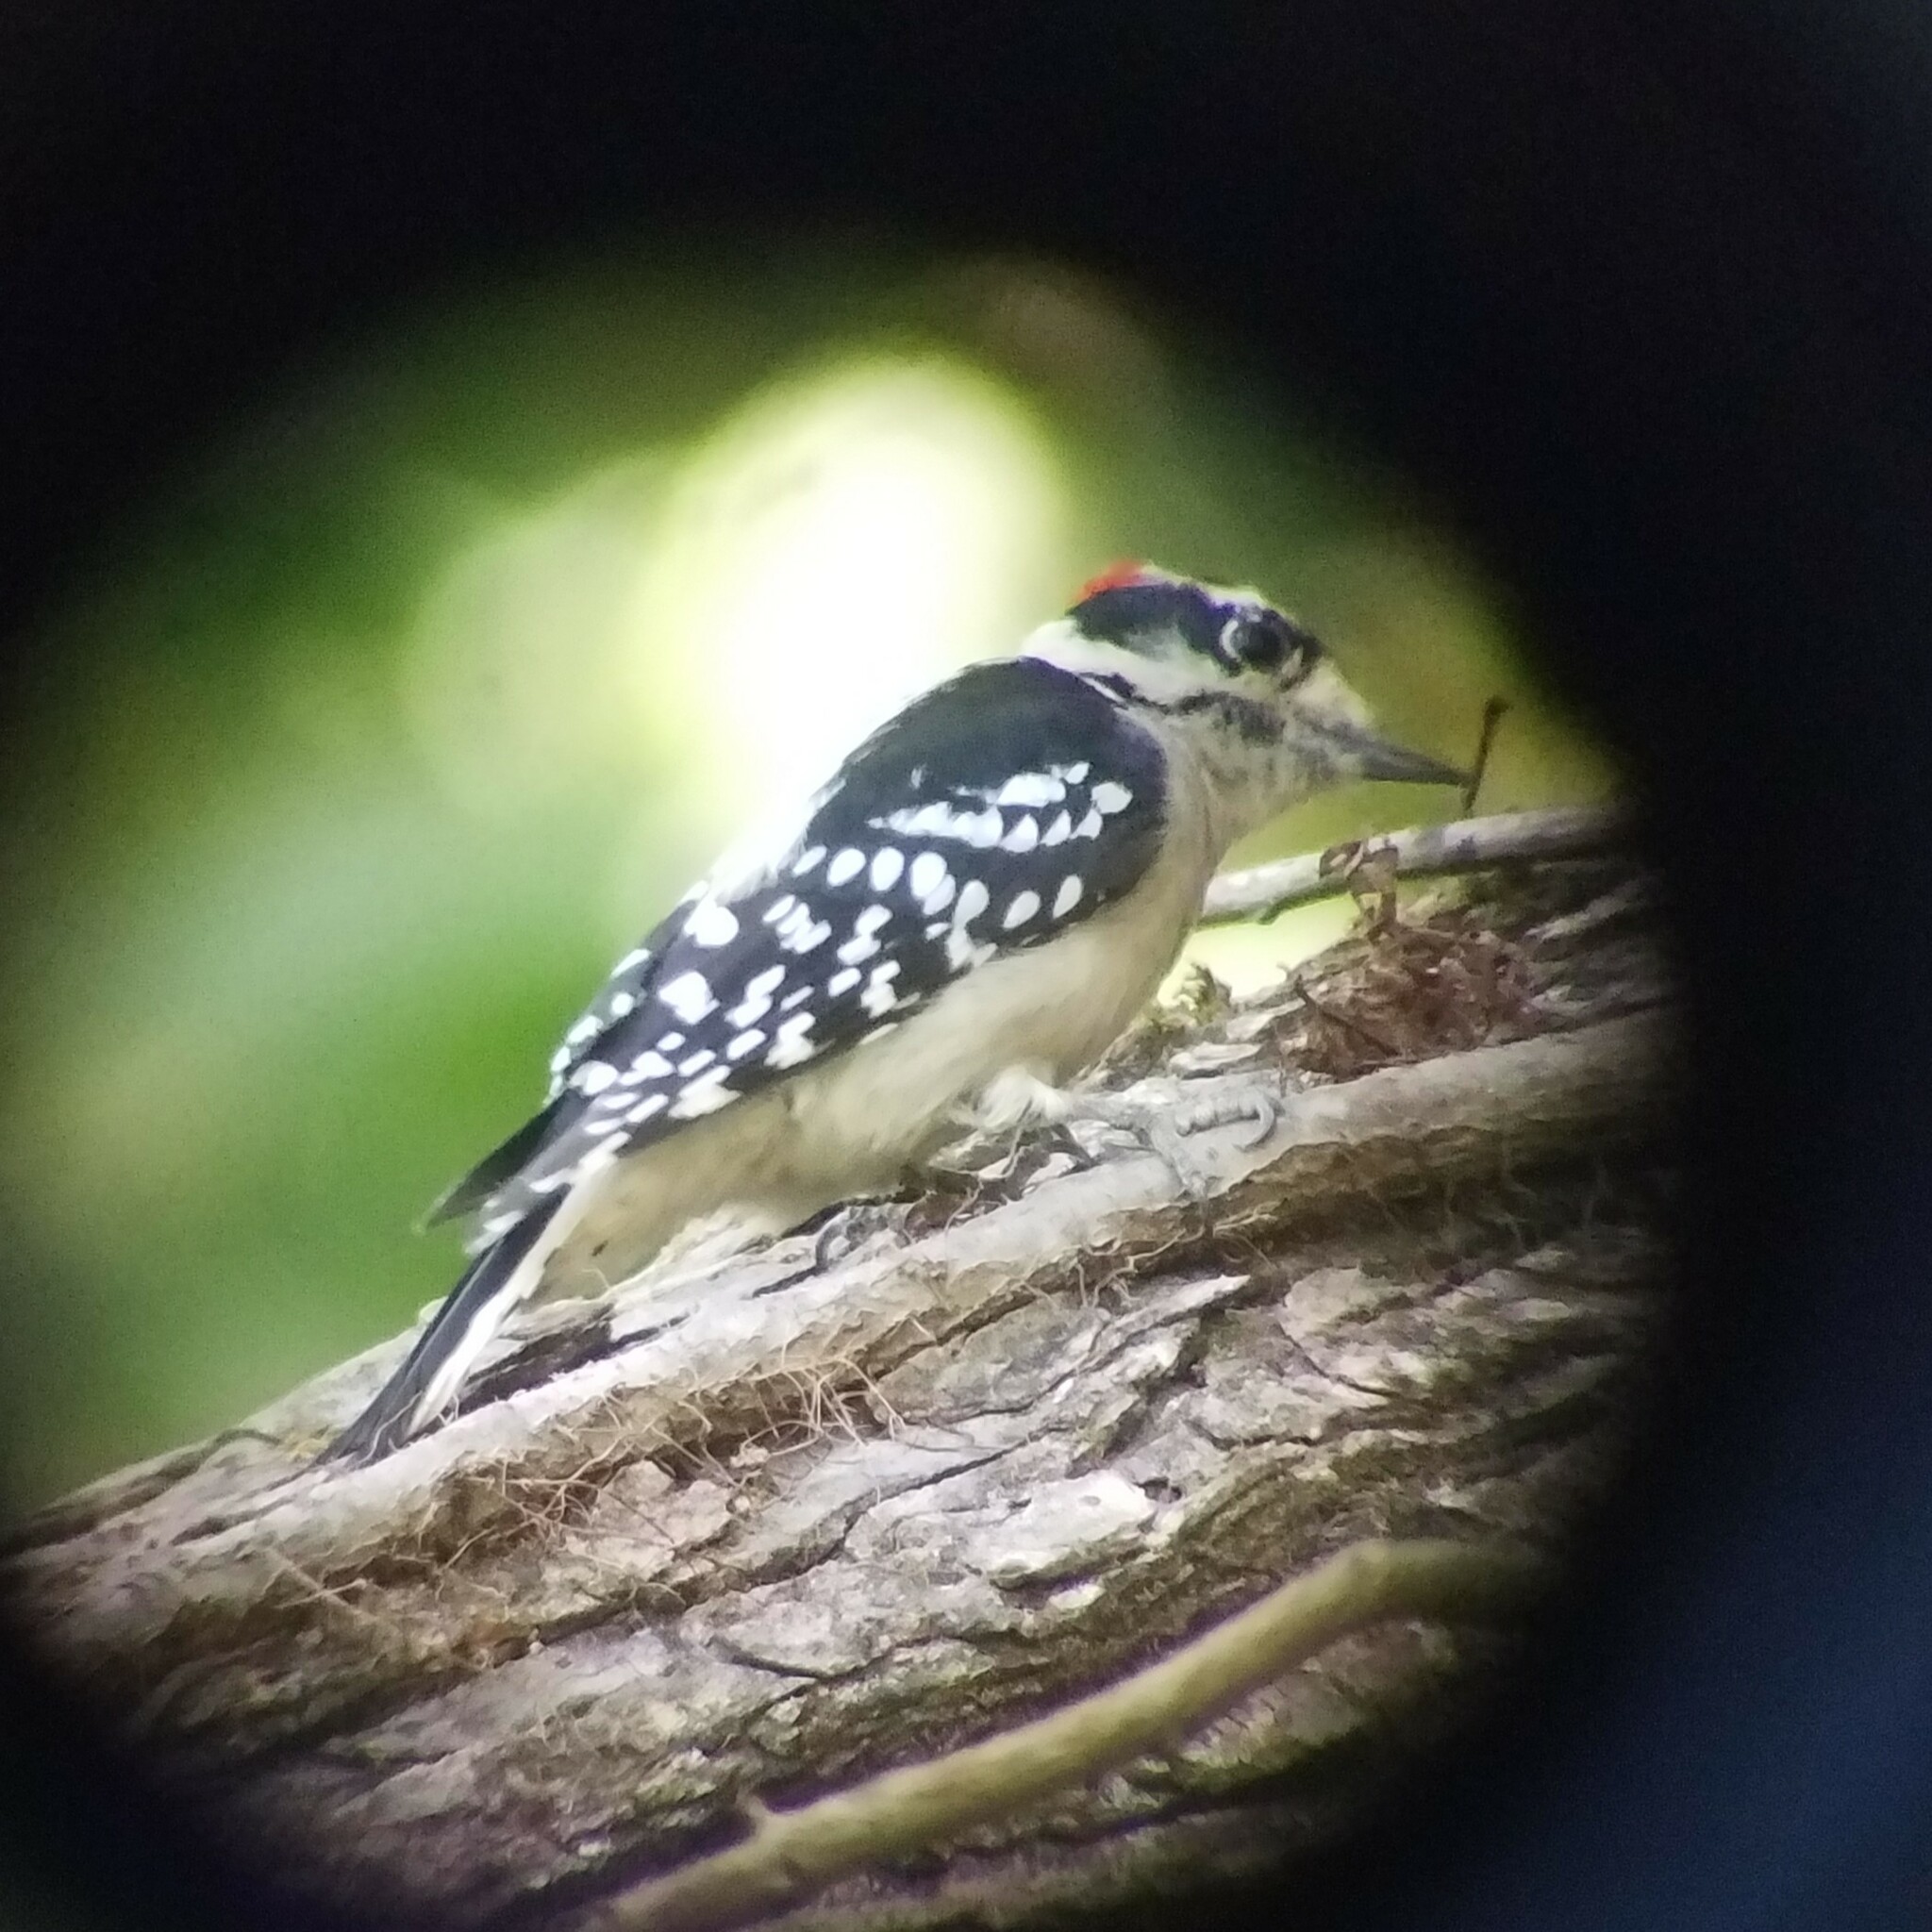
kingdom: Animalia
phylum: Chordata
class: Aves
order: Piciformes
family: Picidae
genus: Dryobates
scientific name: Dryobates pubescens
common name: Downy woodpecker
